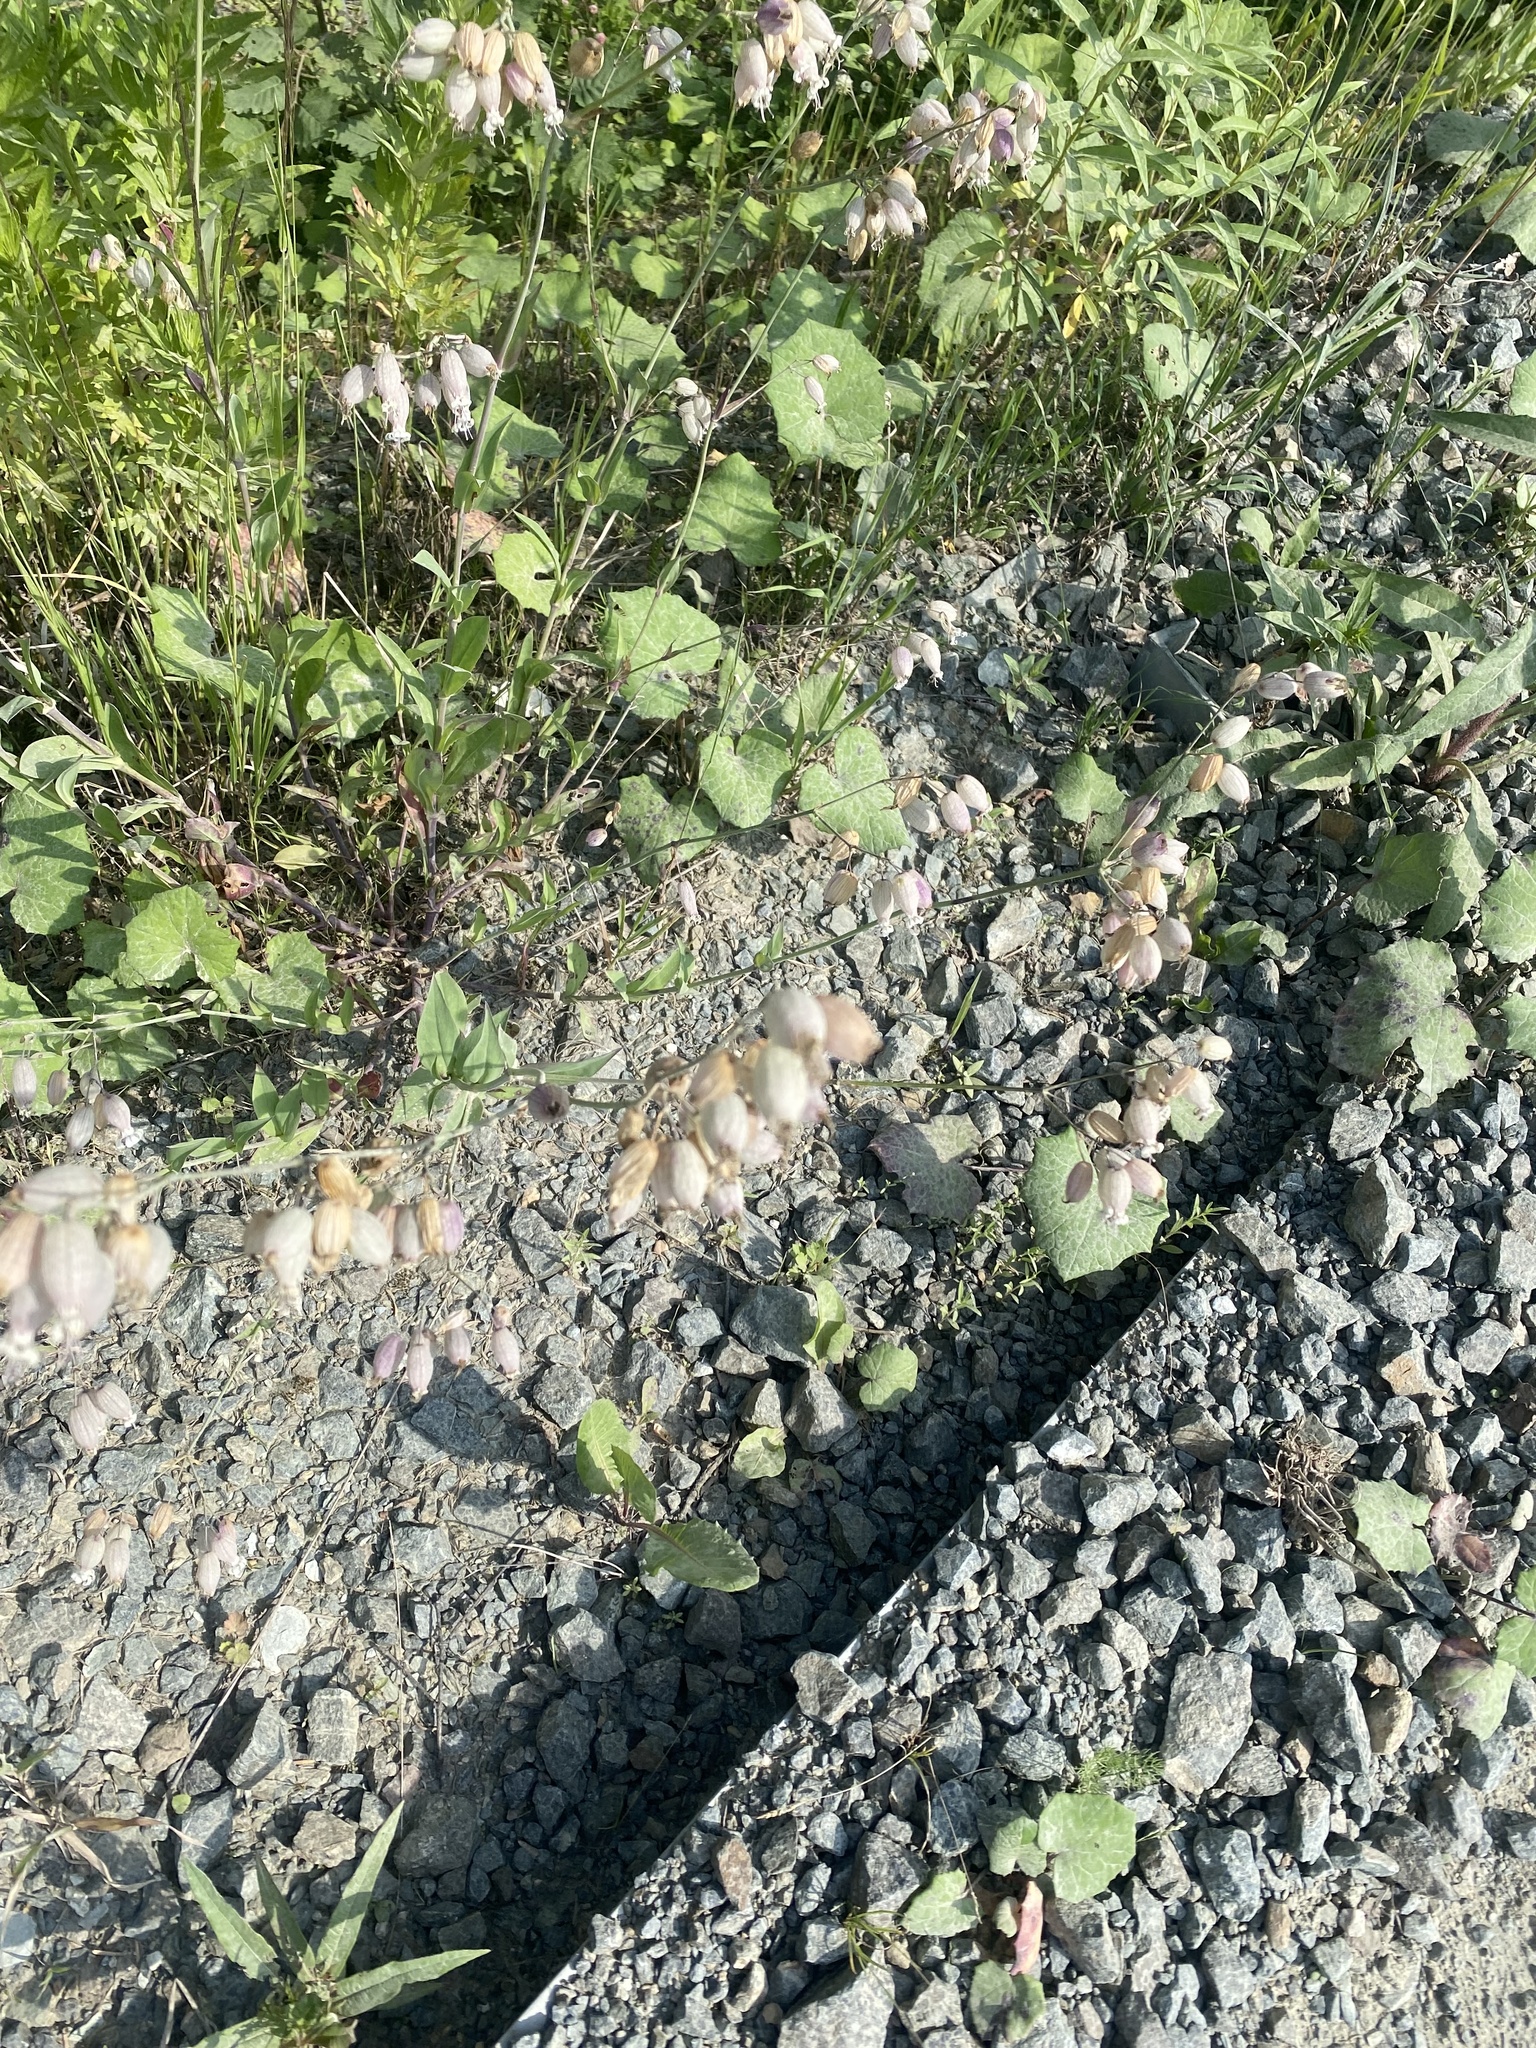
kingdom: Plantae
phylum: Tracheophyta
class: Magnoliopsida
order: Caryophyllales
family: Caryophyllaceae
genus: Silene
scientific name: Silene vulgaris
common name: Bladder campion
